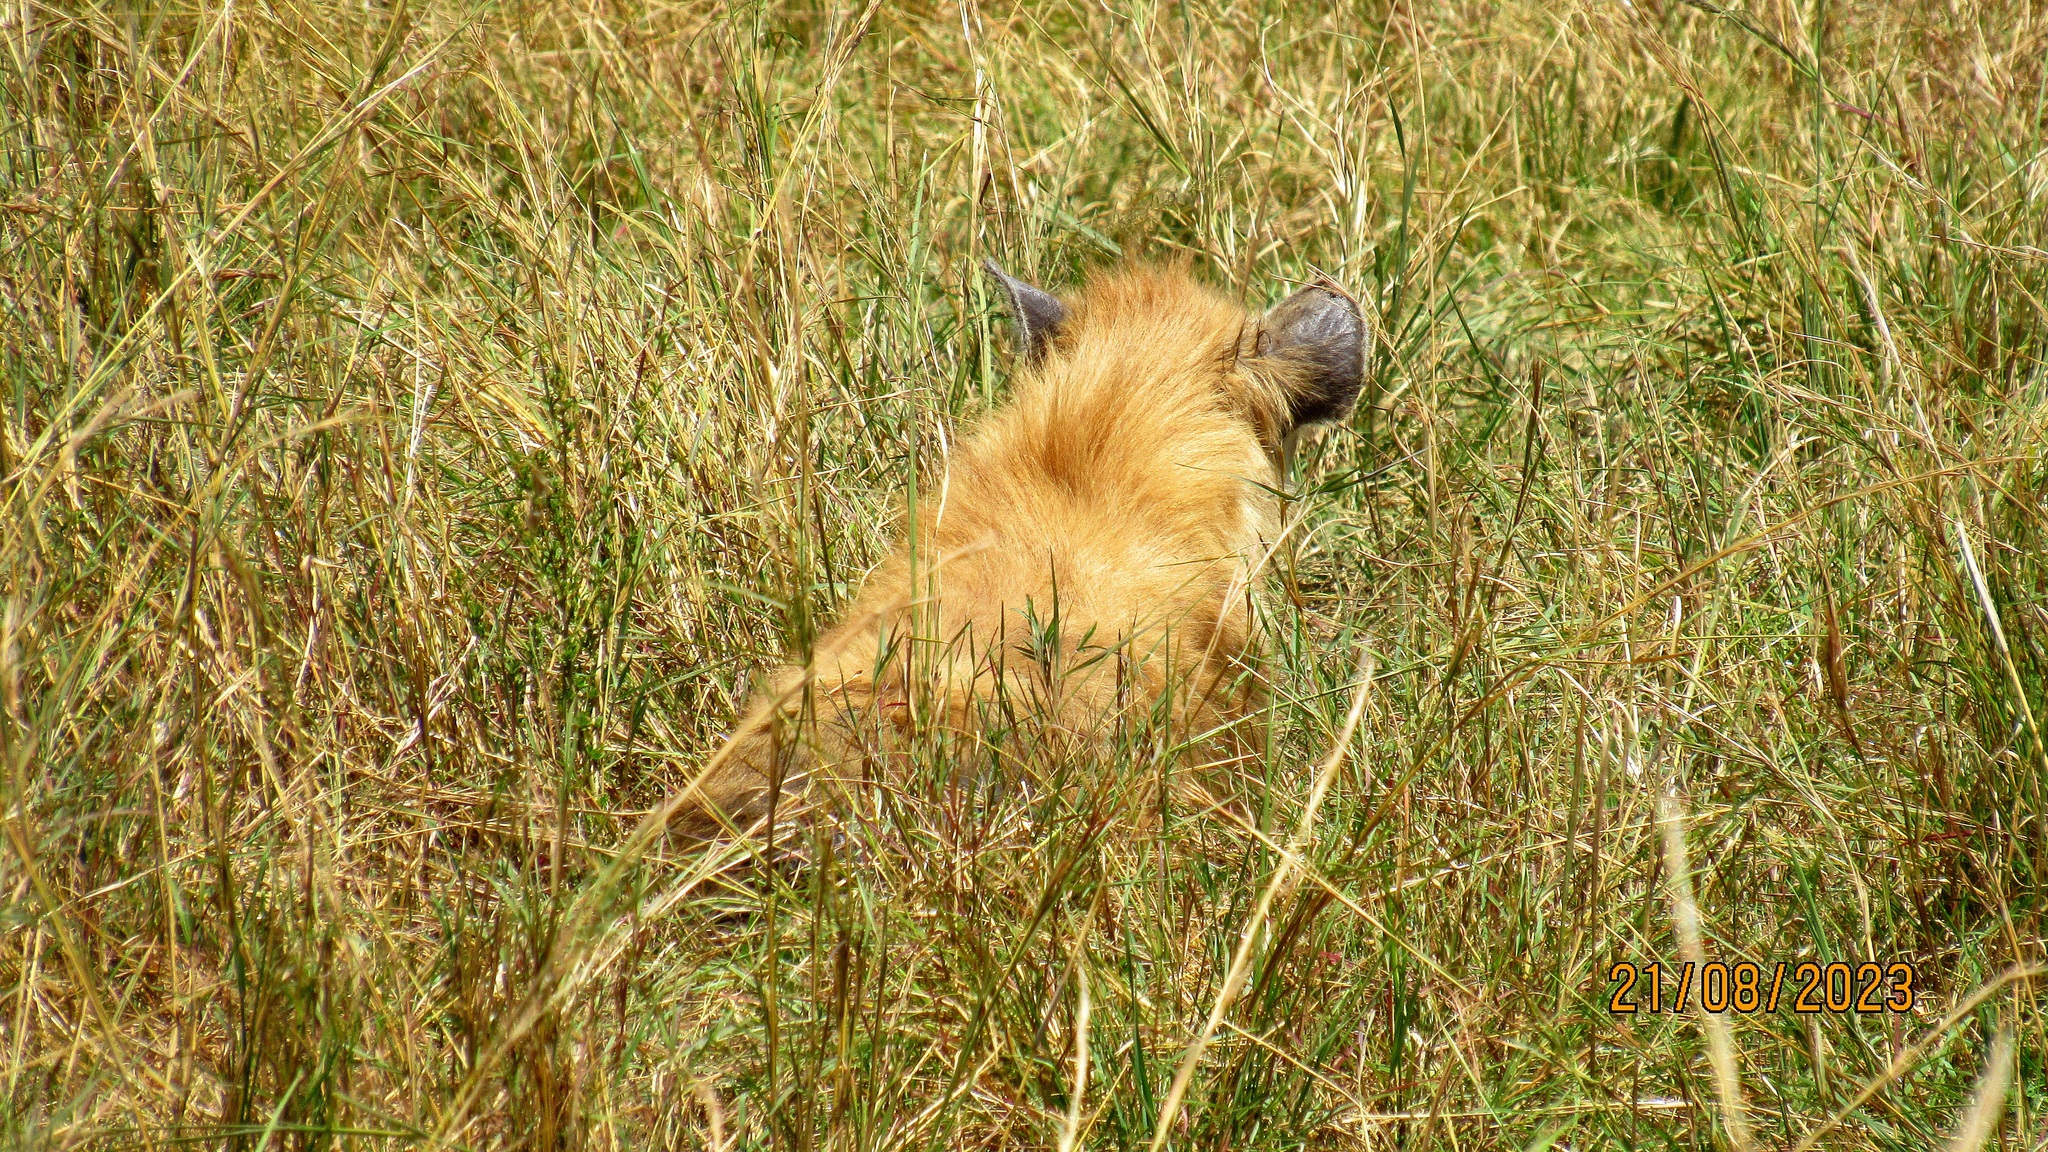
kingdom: Animalia
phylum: Chordata
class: Mammalia
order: Carnivora
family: Hyaenidae
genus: Crocuta
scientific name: Crocuta crocuta
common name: Spotted hyaena
